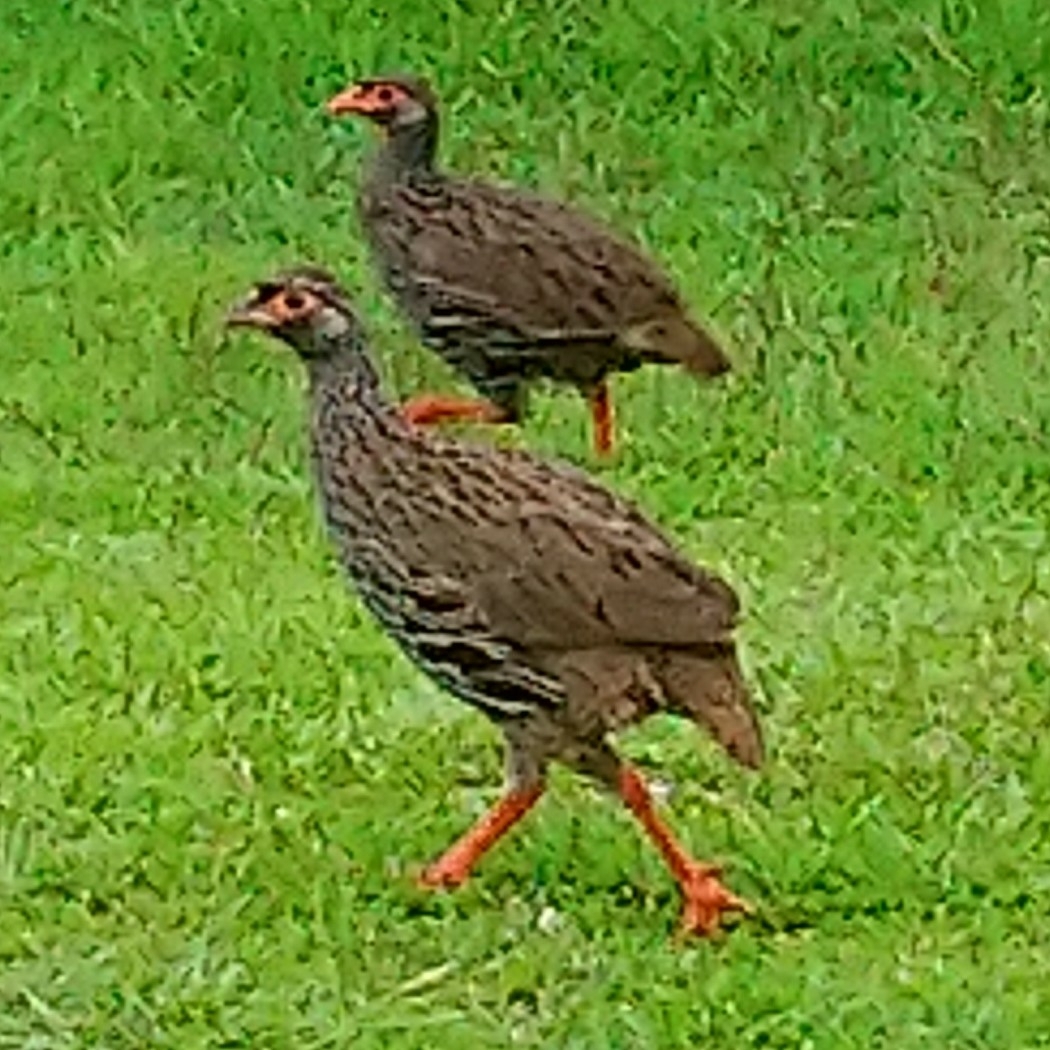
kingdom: Animalia
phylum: Chordata
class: Aves
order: Galliformes
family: Phasianidae
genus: Pternistis
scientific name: Pternistis afer
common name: Red-necked spurfowl
